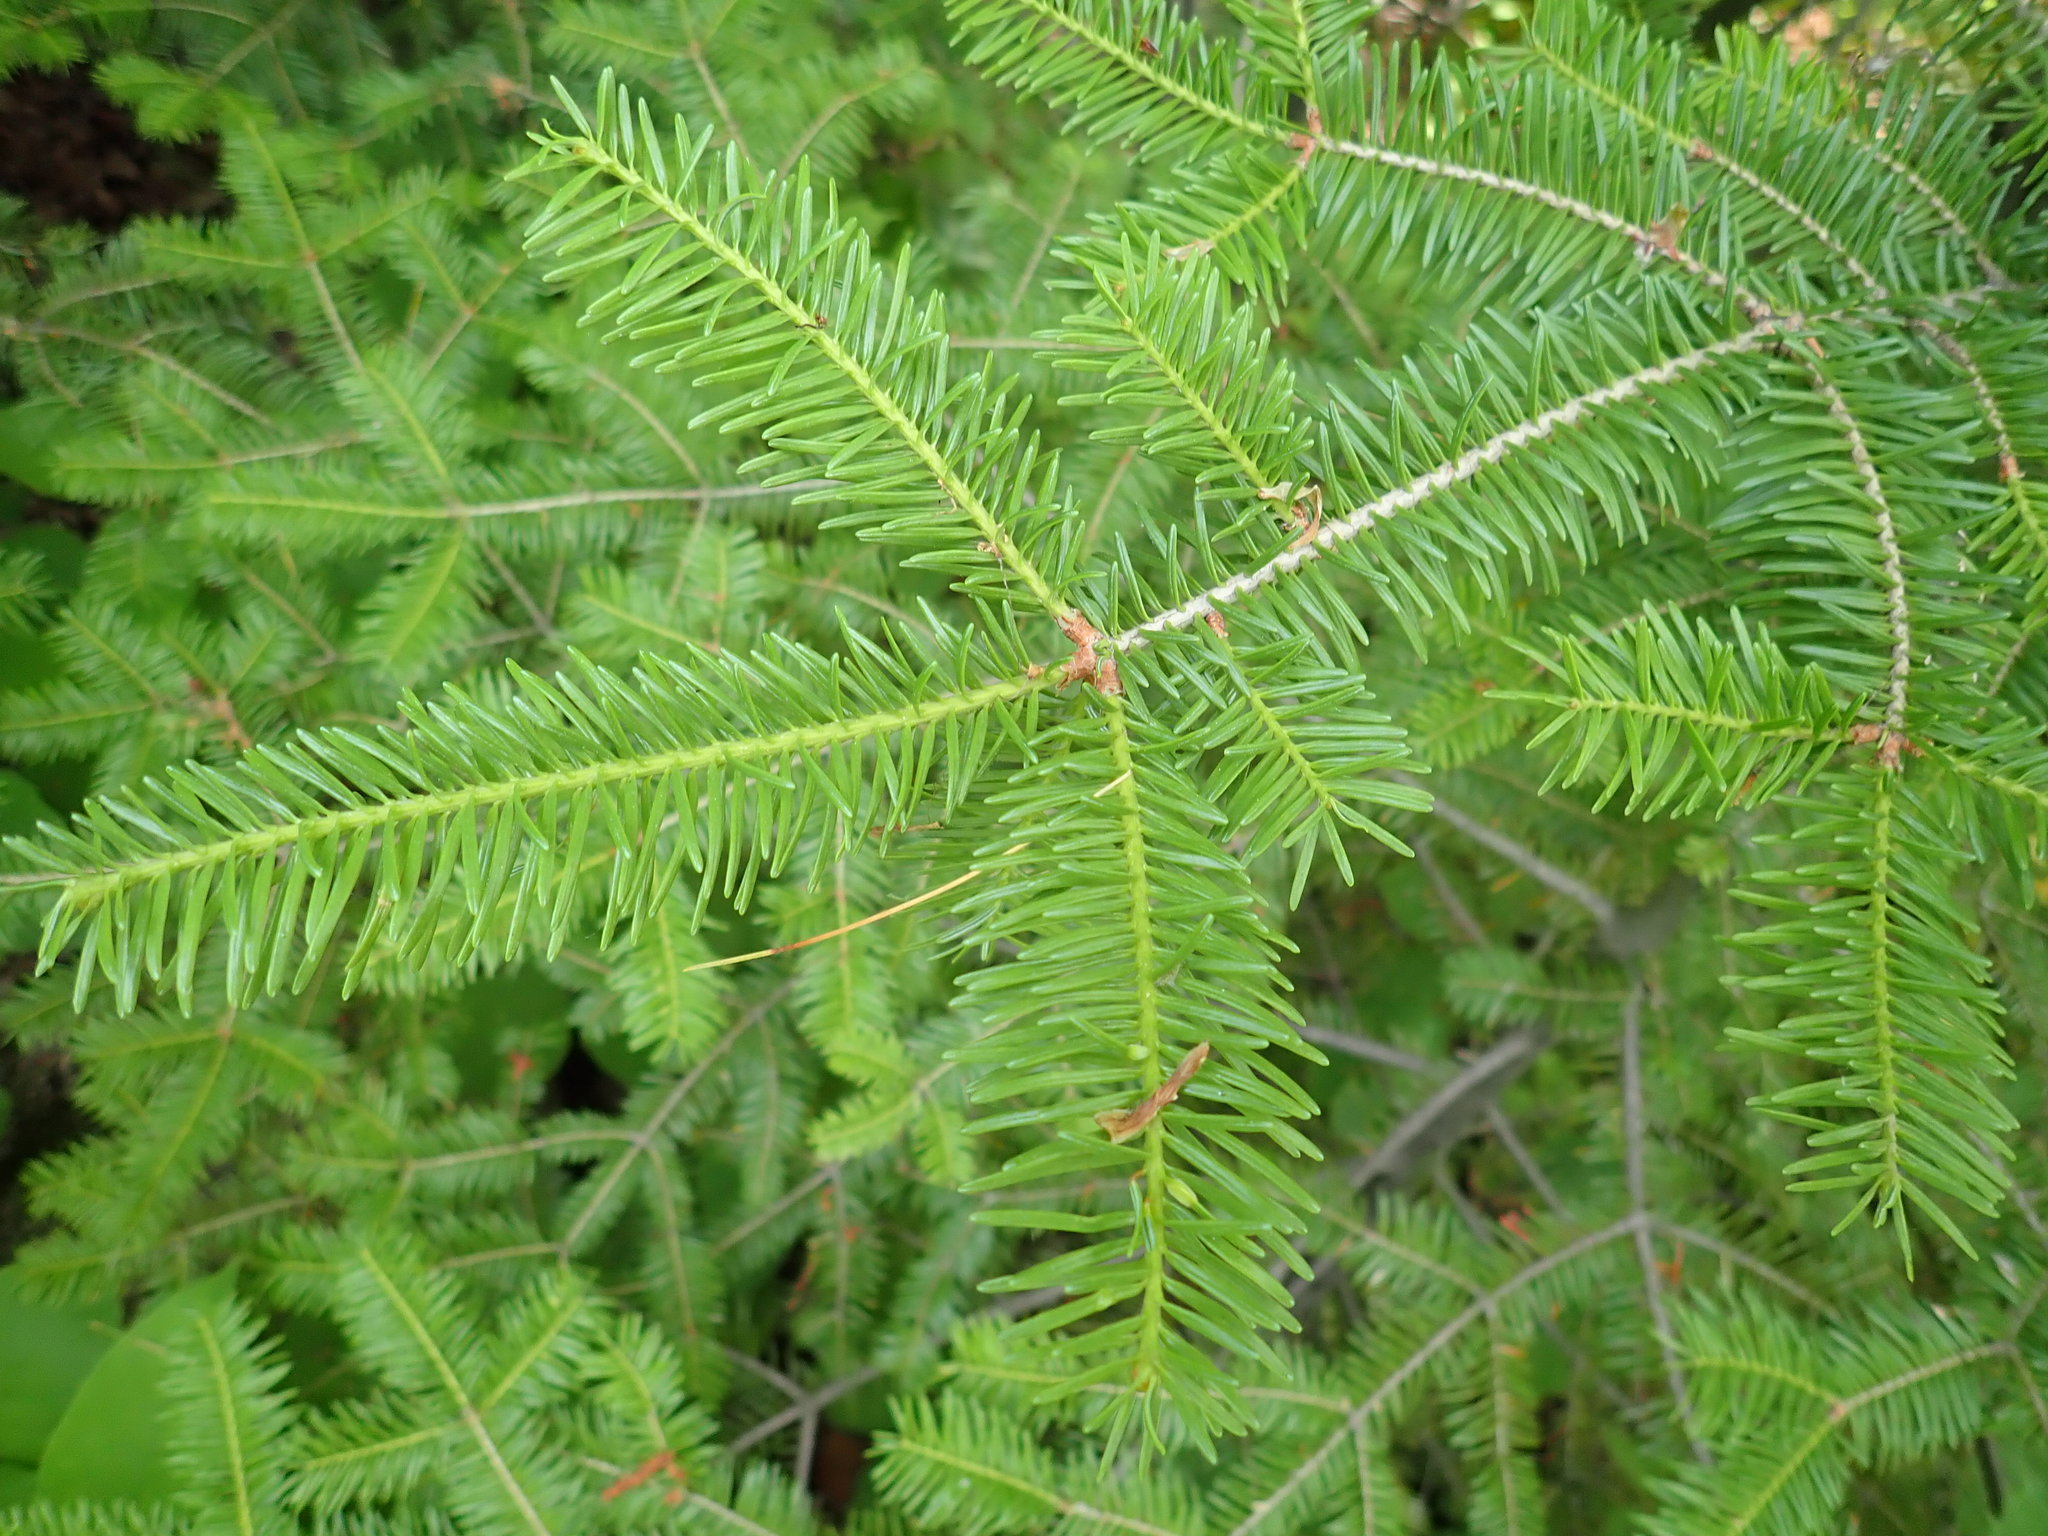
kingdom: Plantae
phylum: Tracheophyta
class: Pinopsida
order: Pinales
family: Pinaceae
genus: Abies
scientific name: Abies balsamea
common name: Balsam fir
